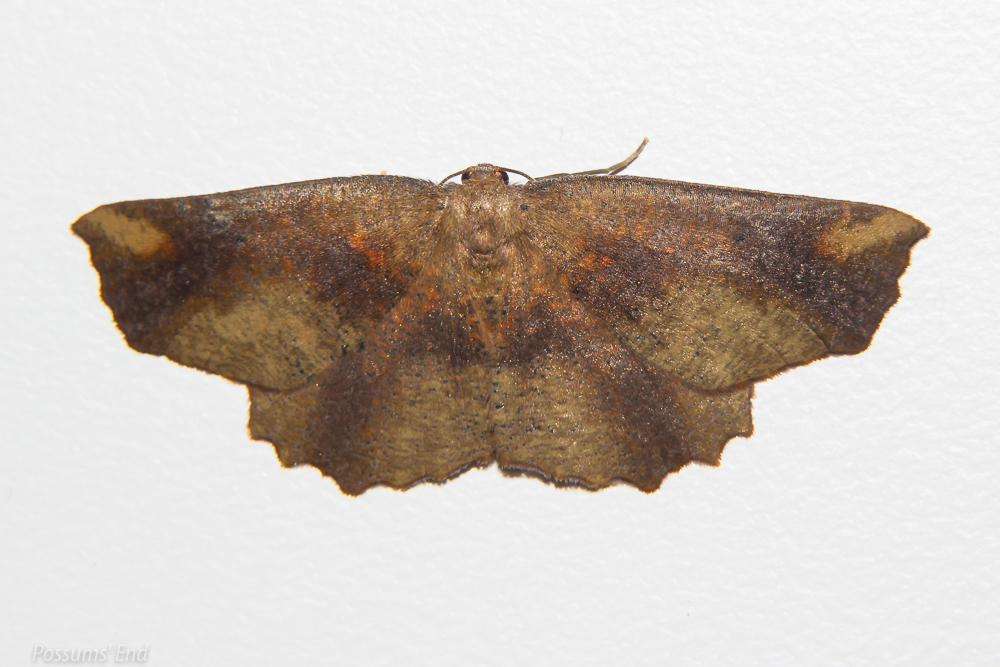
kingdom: Animalia
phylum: Arthropoda
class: Insecta
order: Lepidoptera
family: Geometridae
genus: Xyridacma
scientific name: Xyridacma ustaria
